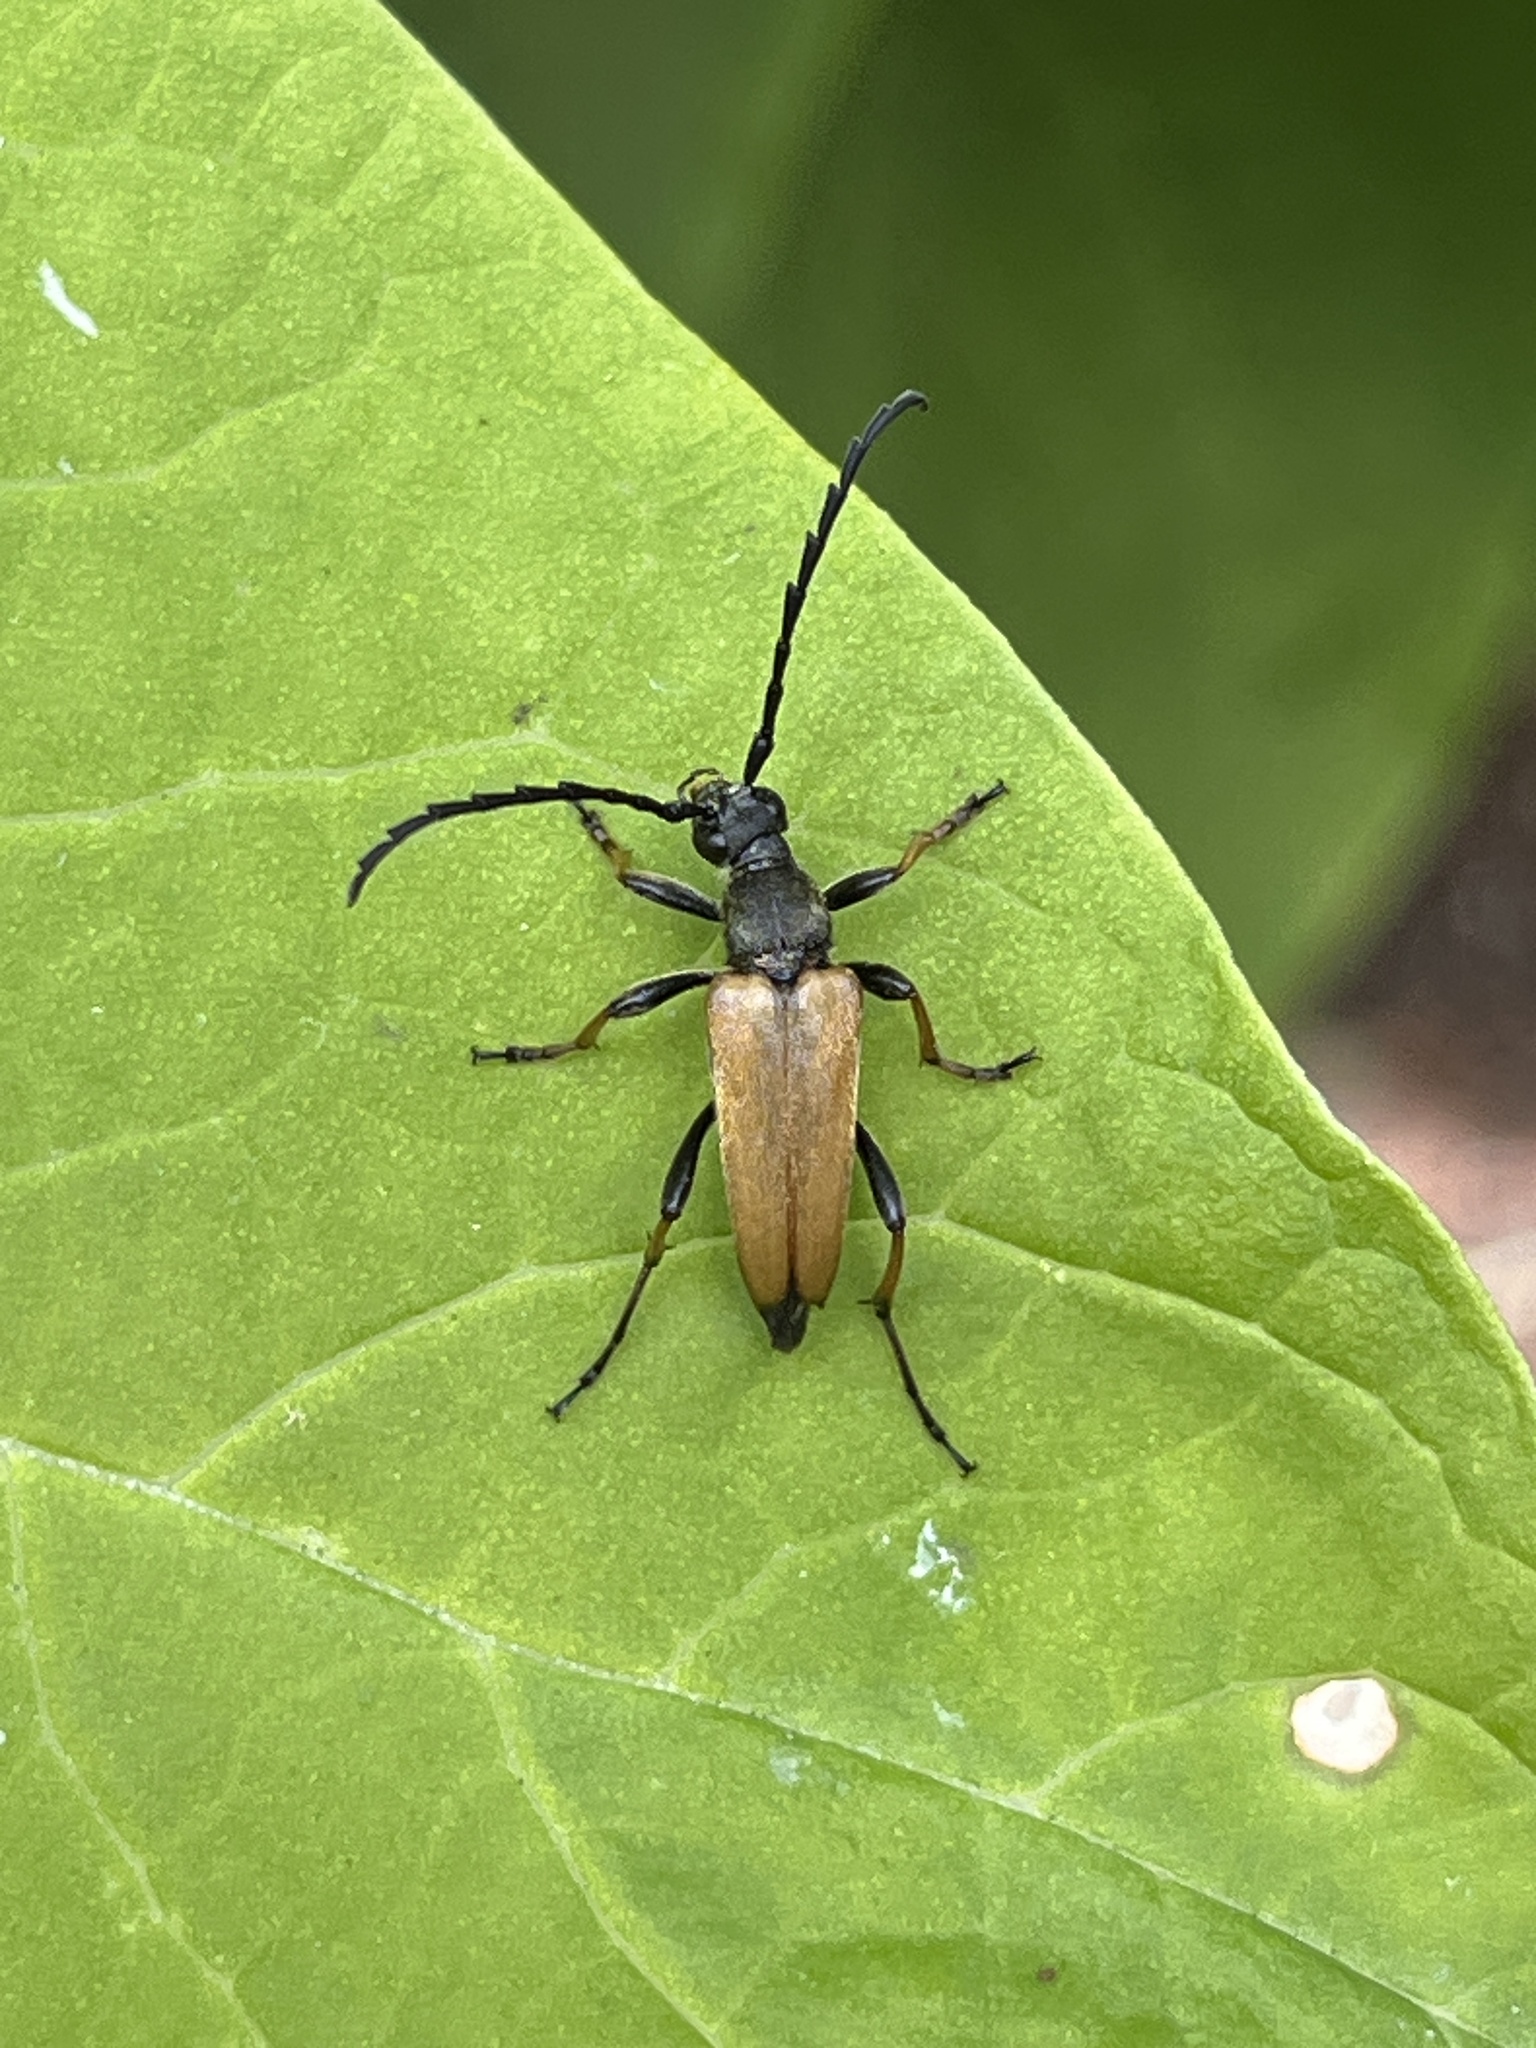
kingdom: Animalia
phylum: Arthropoda
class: Insecta
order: Coleoptera
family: Cerambycidae
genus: Stictoleptura
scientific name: Stictoleptura rubra
